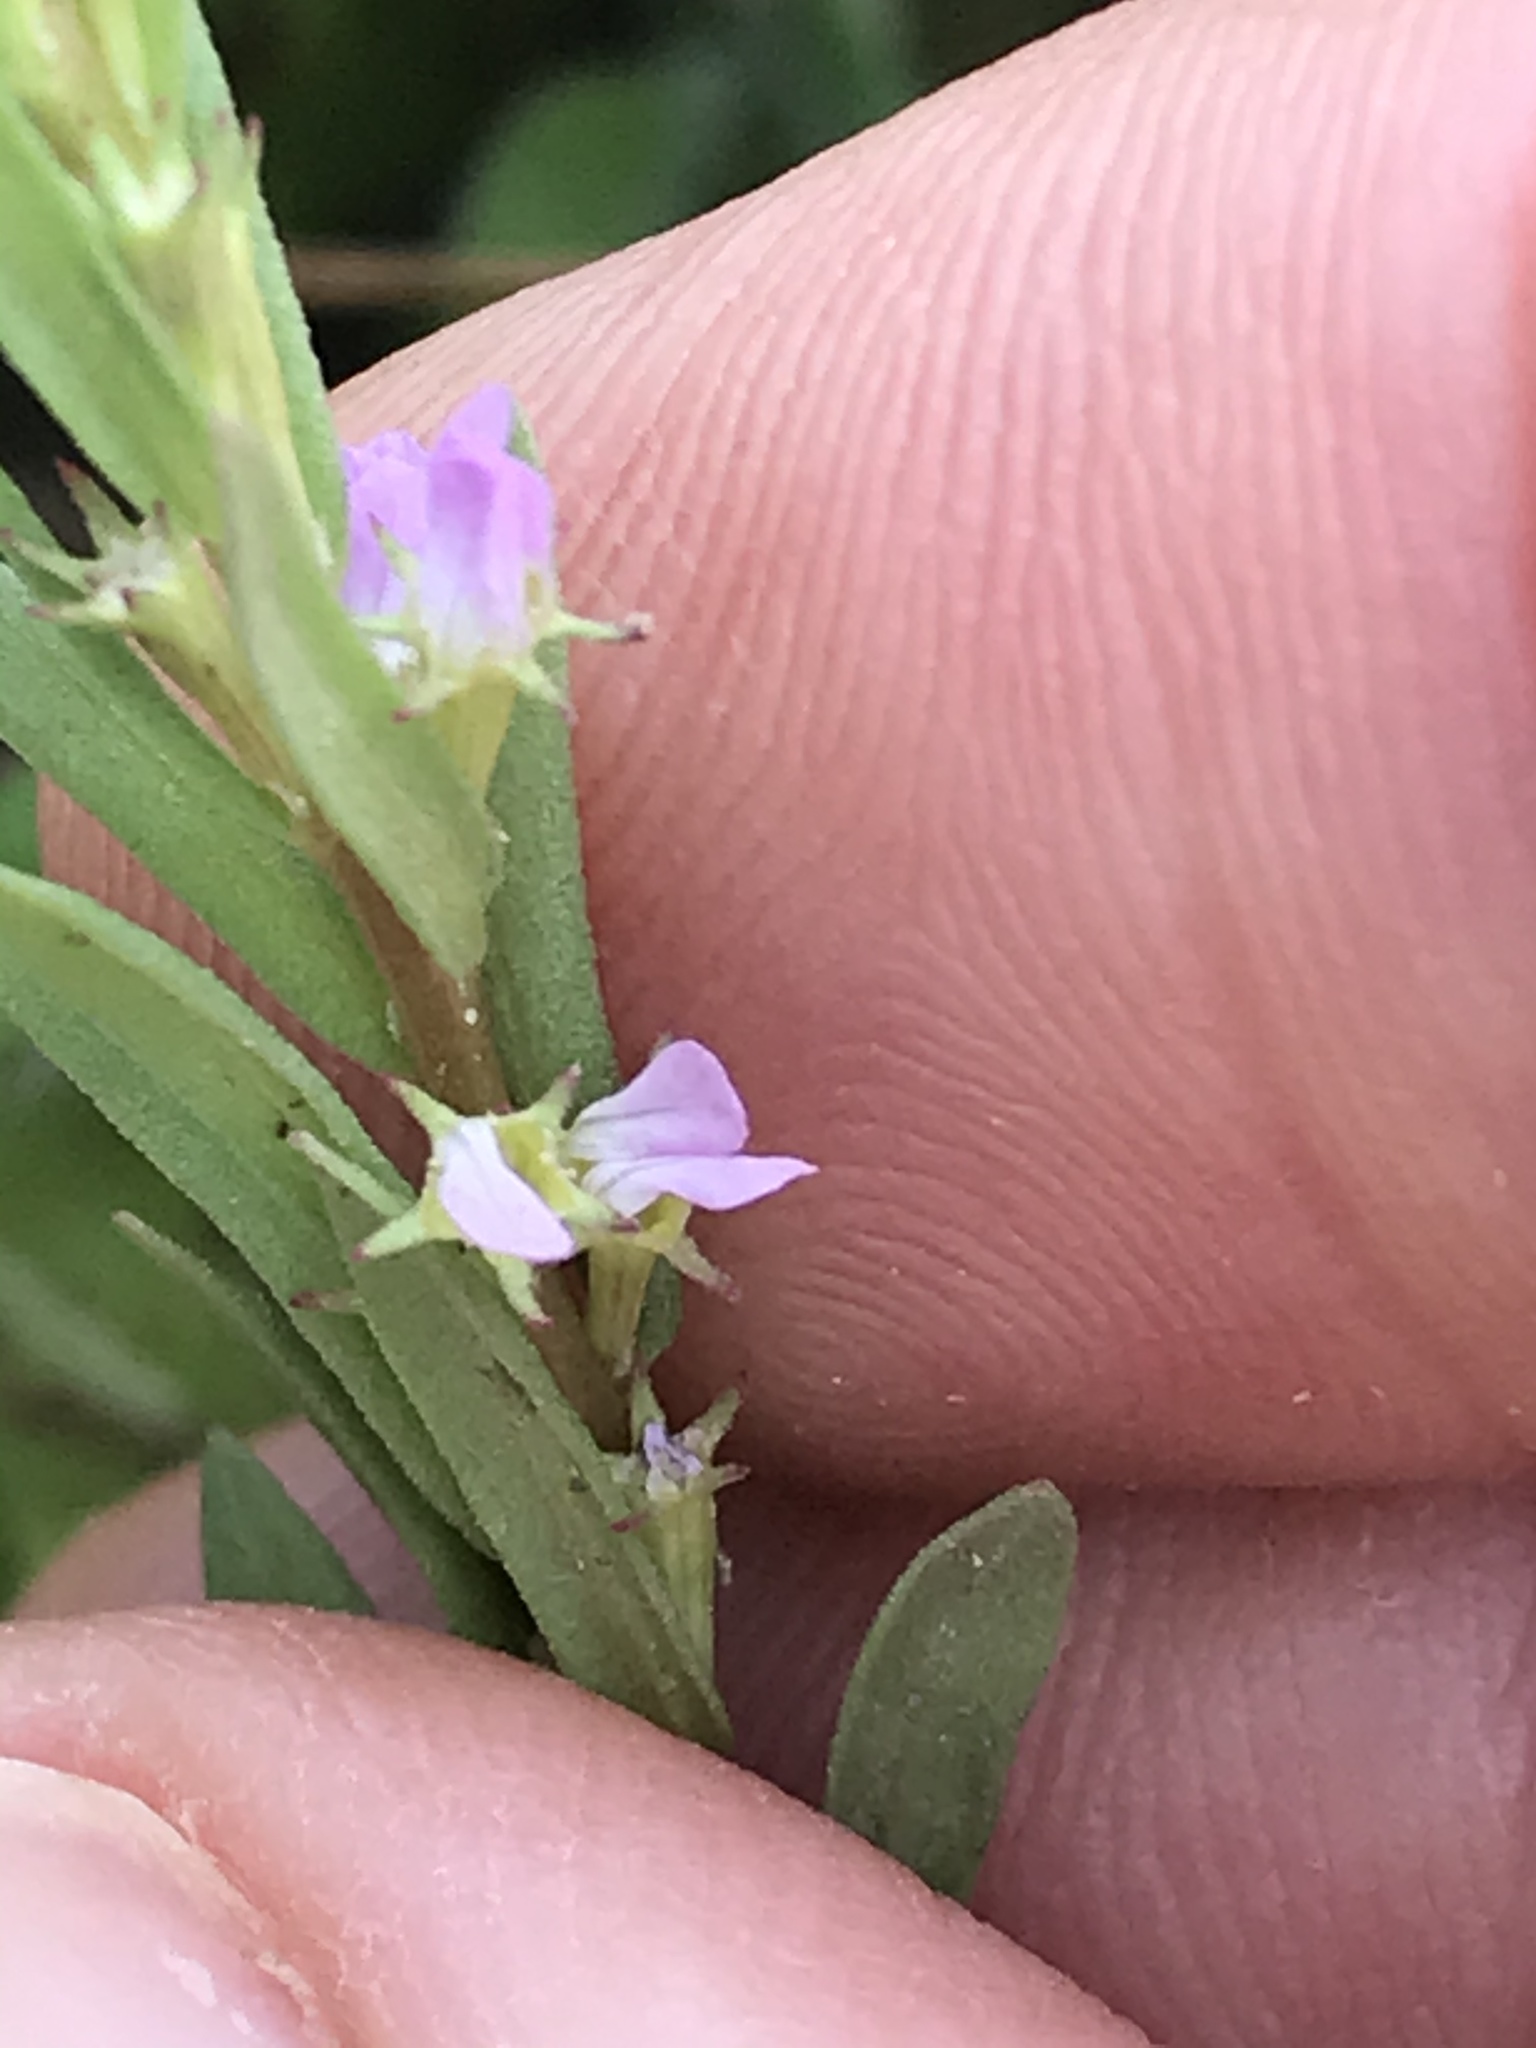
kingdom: Plantae
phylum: Tracheophyta
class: Magnoliopsida
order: Myrtales
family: Lythraceae
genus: Lythrum
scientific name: Lythrum hyssopifolia
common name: Grass-poly
